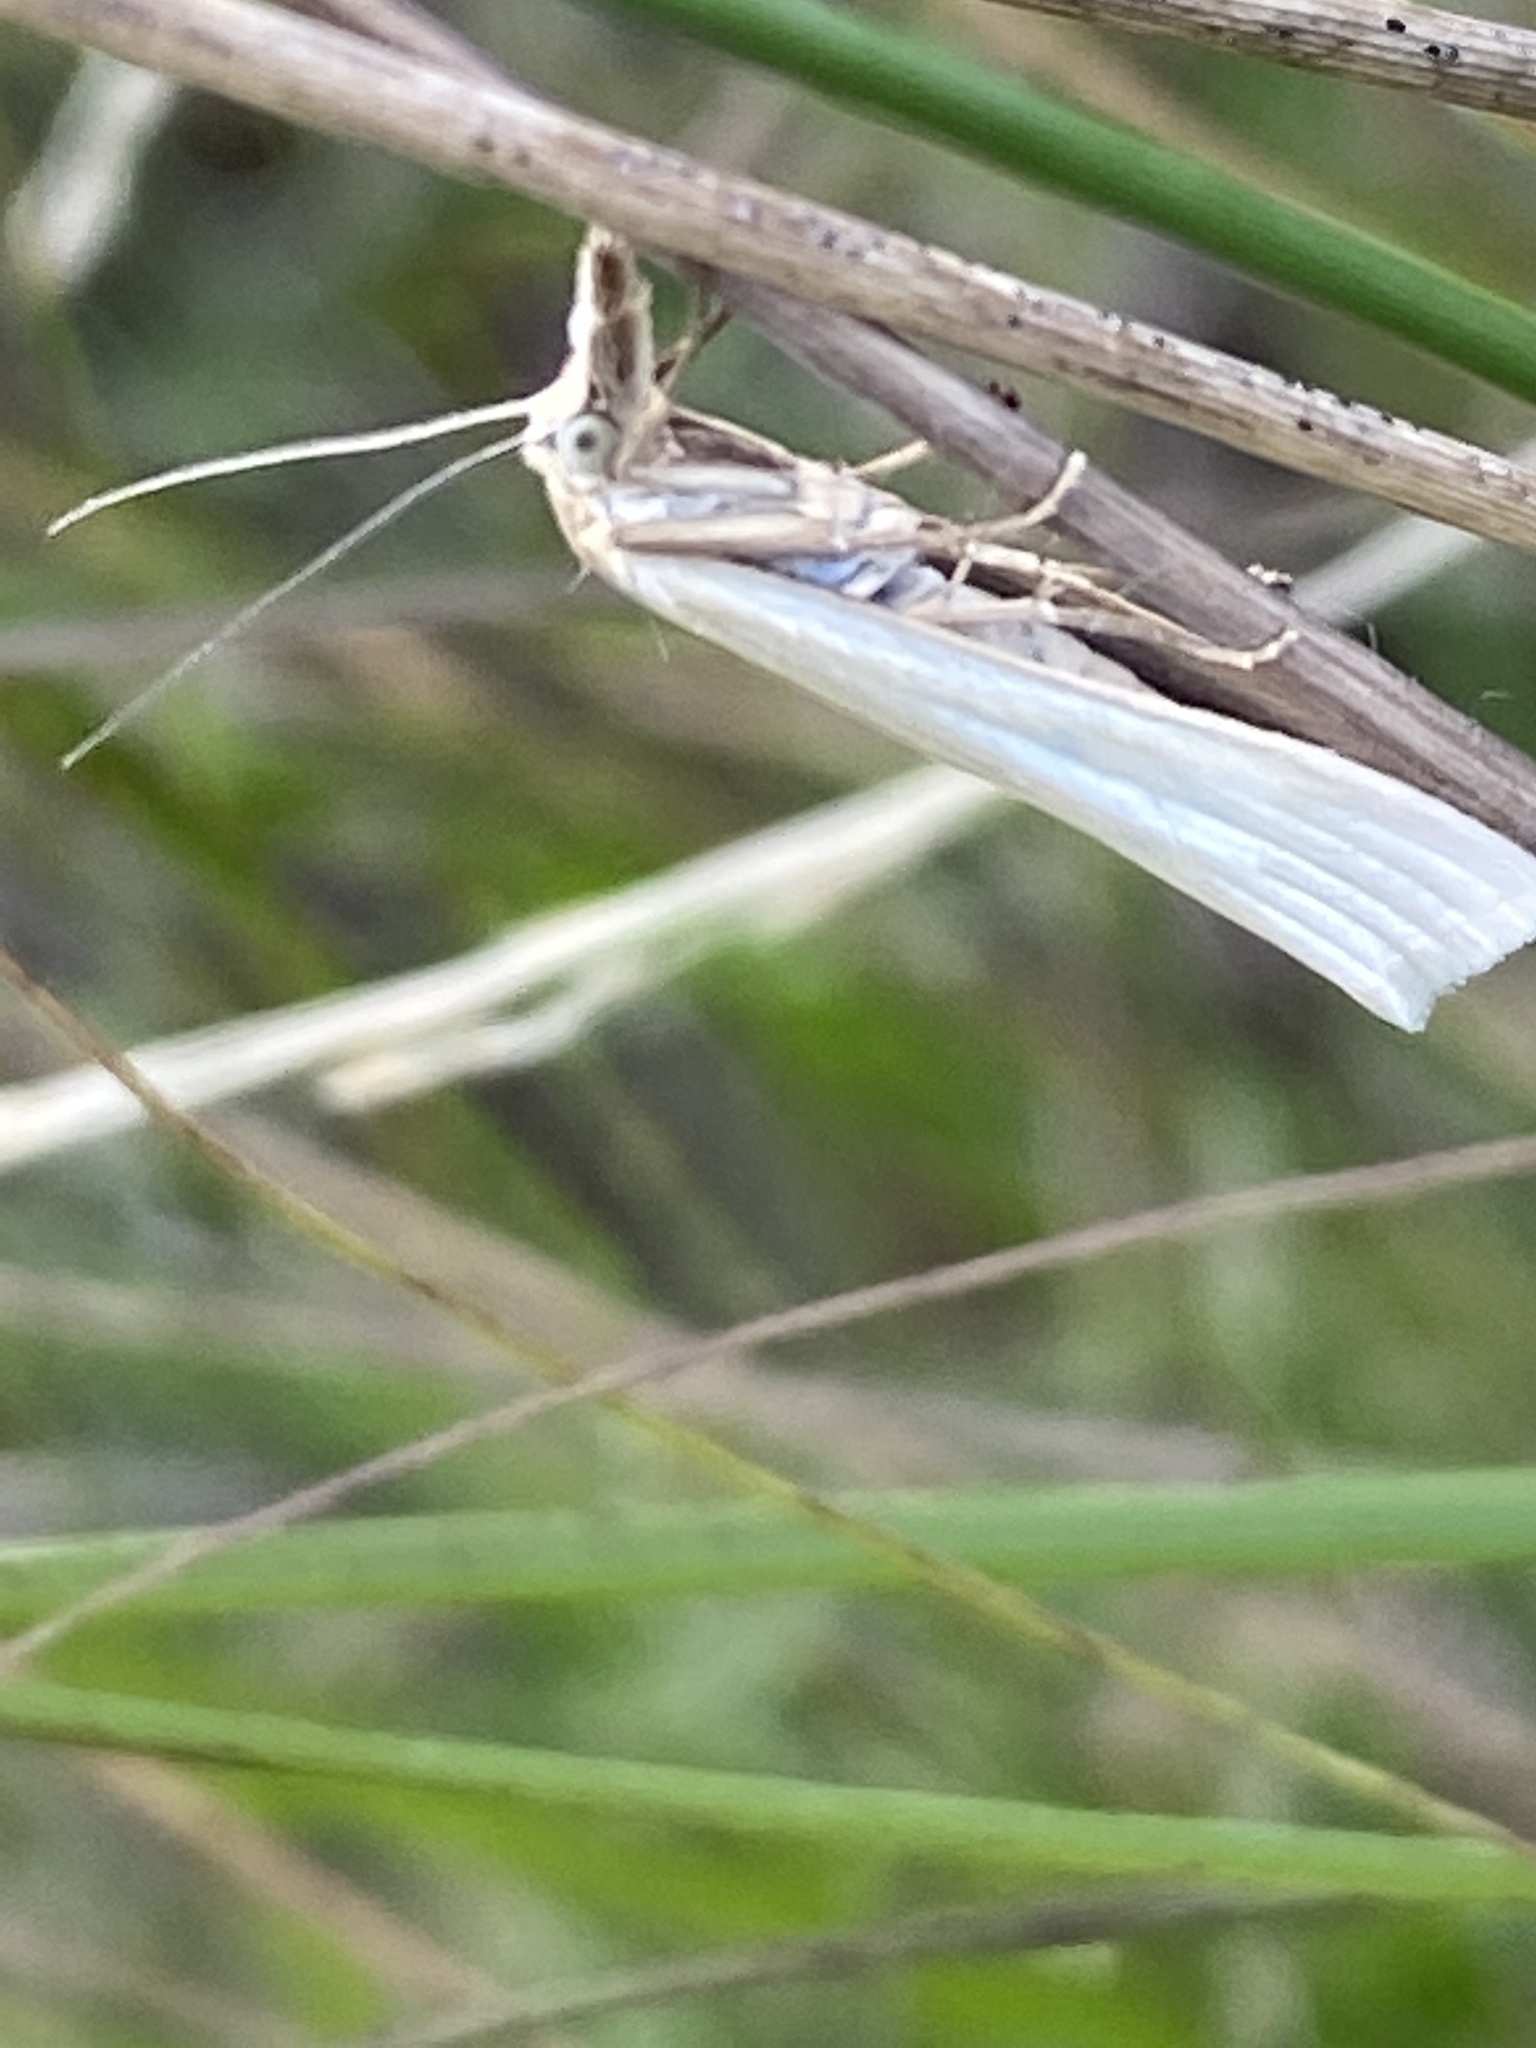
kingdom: Animalia
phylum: Arthropoda
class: Insecta
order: Lepidoptera
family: Crambidae
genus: Crambus
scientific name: Crambus perlellus
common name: Yellow satin veneer
